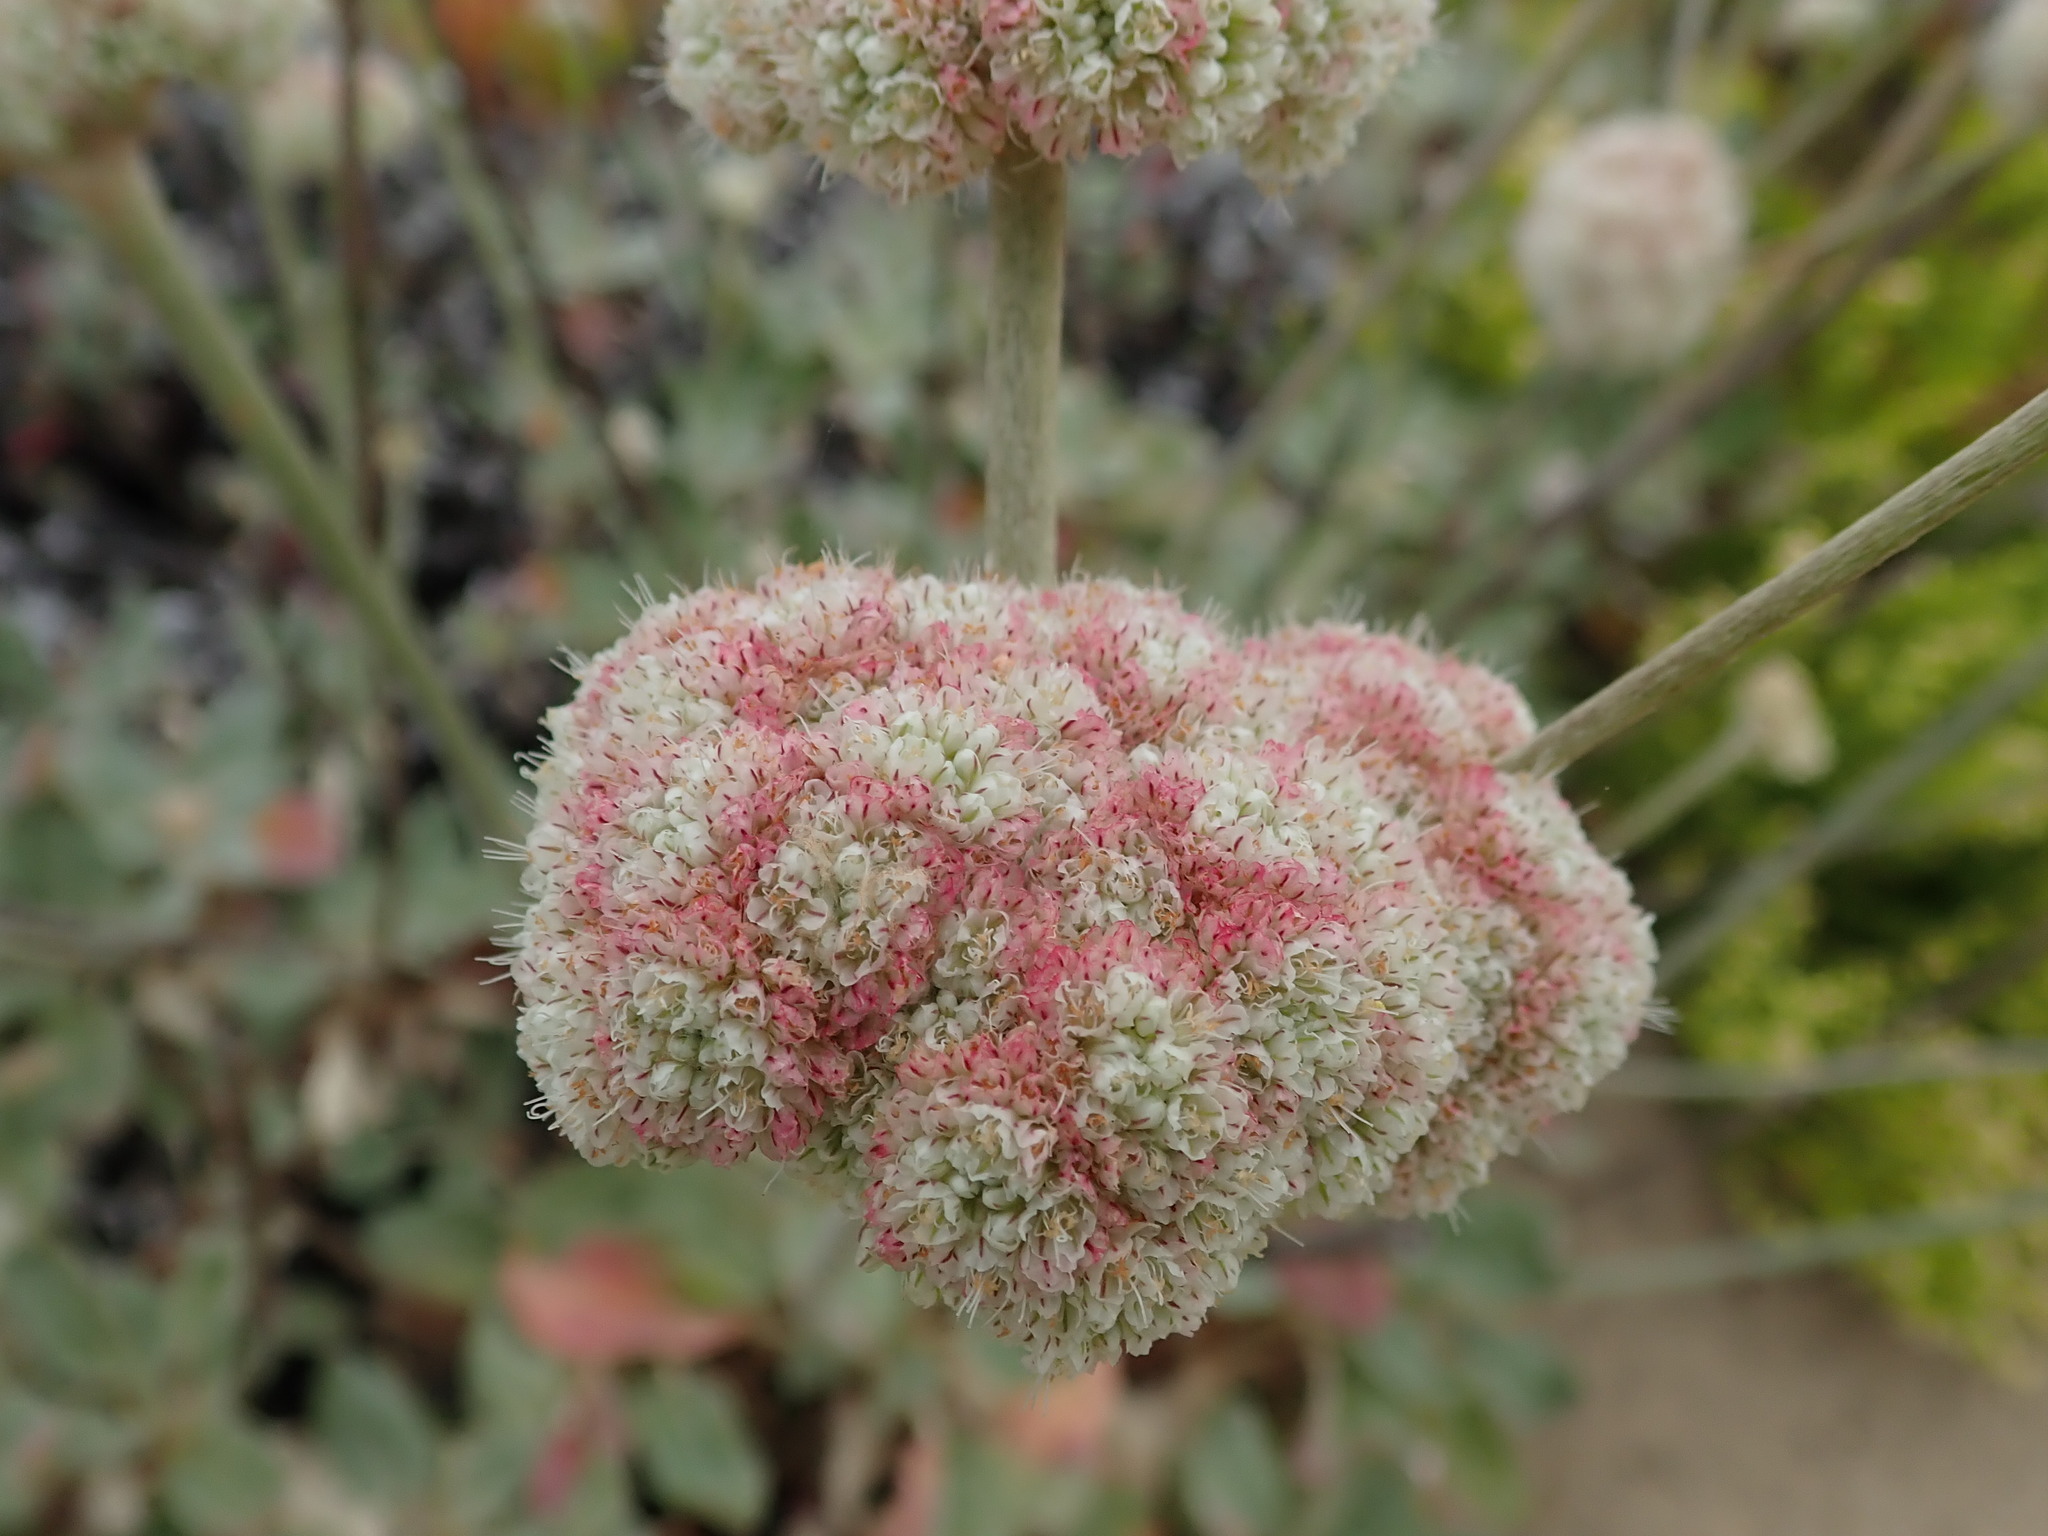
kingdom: Plantae
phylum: Tracheophyta
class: Magnoliopsida
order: Caryophyllales
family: Polygonaceae
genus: Eriogonum
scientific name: Eriogonum latifolium
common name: Seaside wild buckwheat
